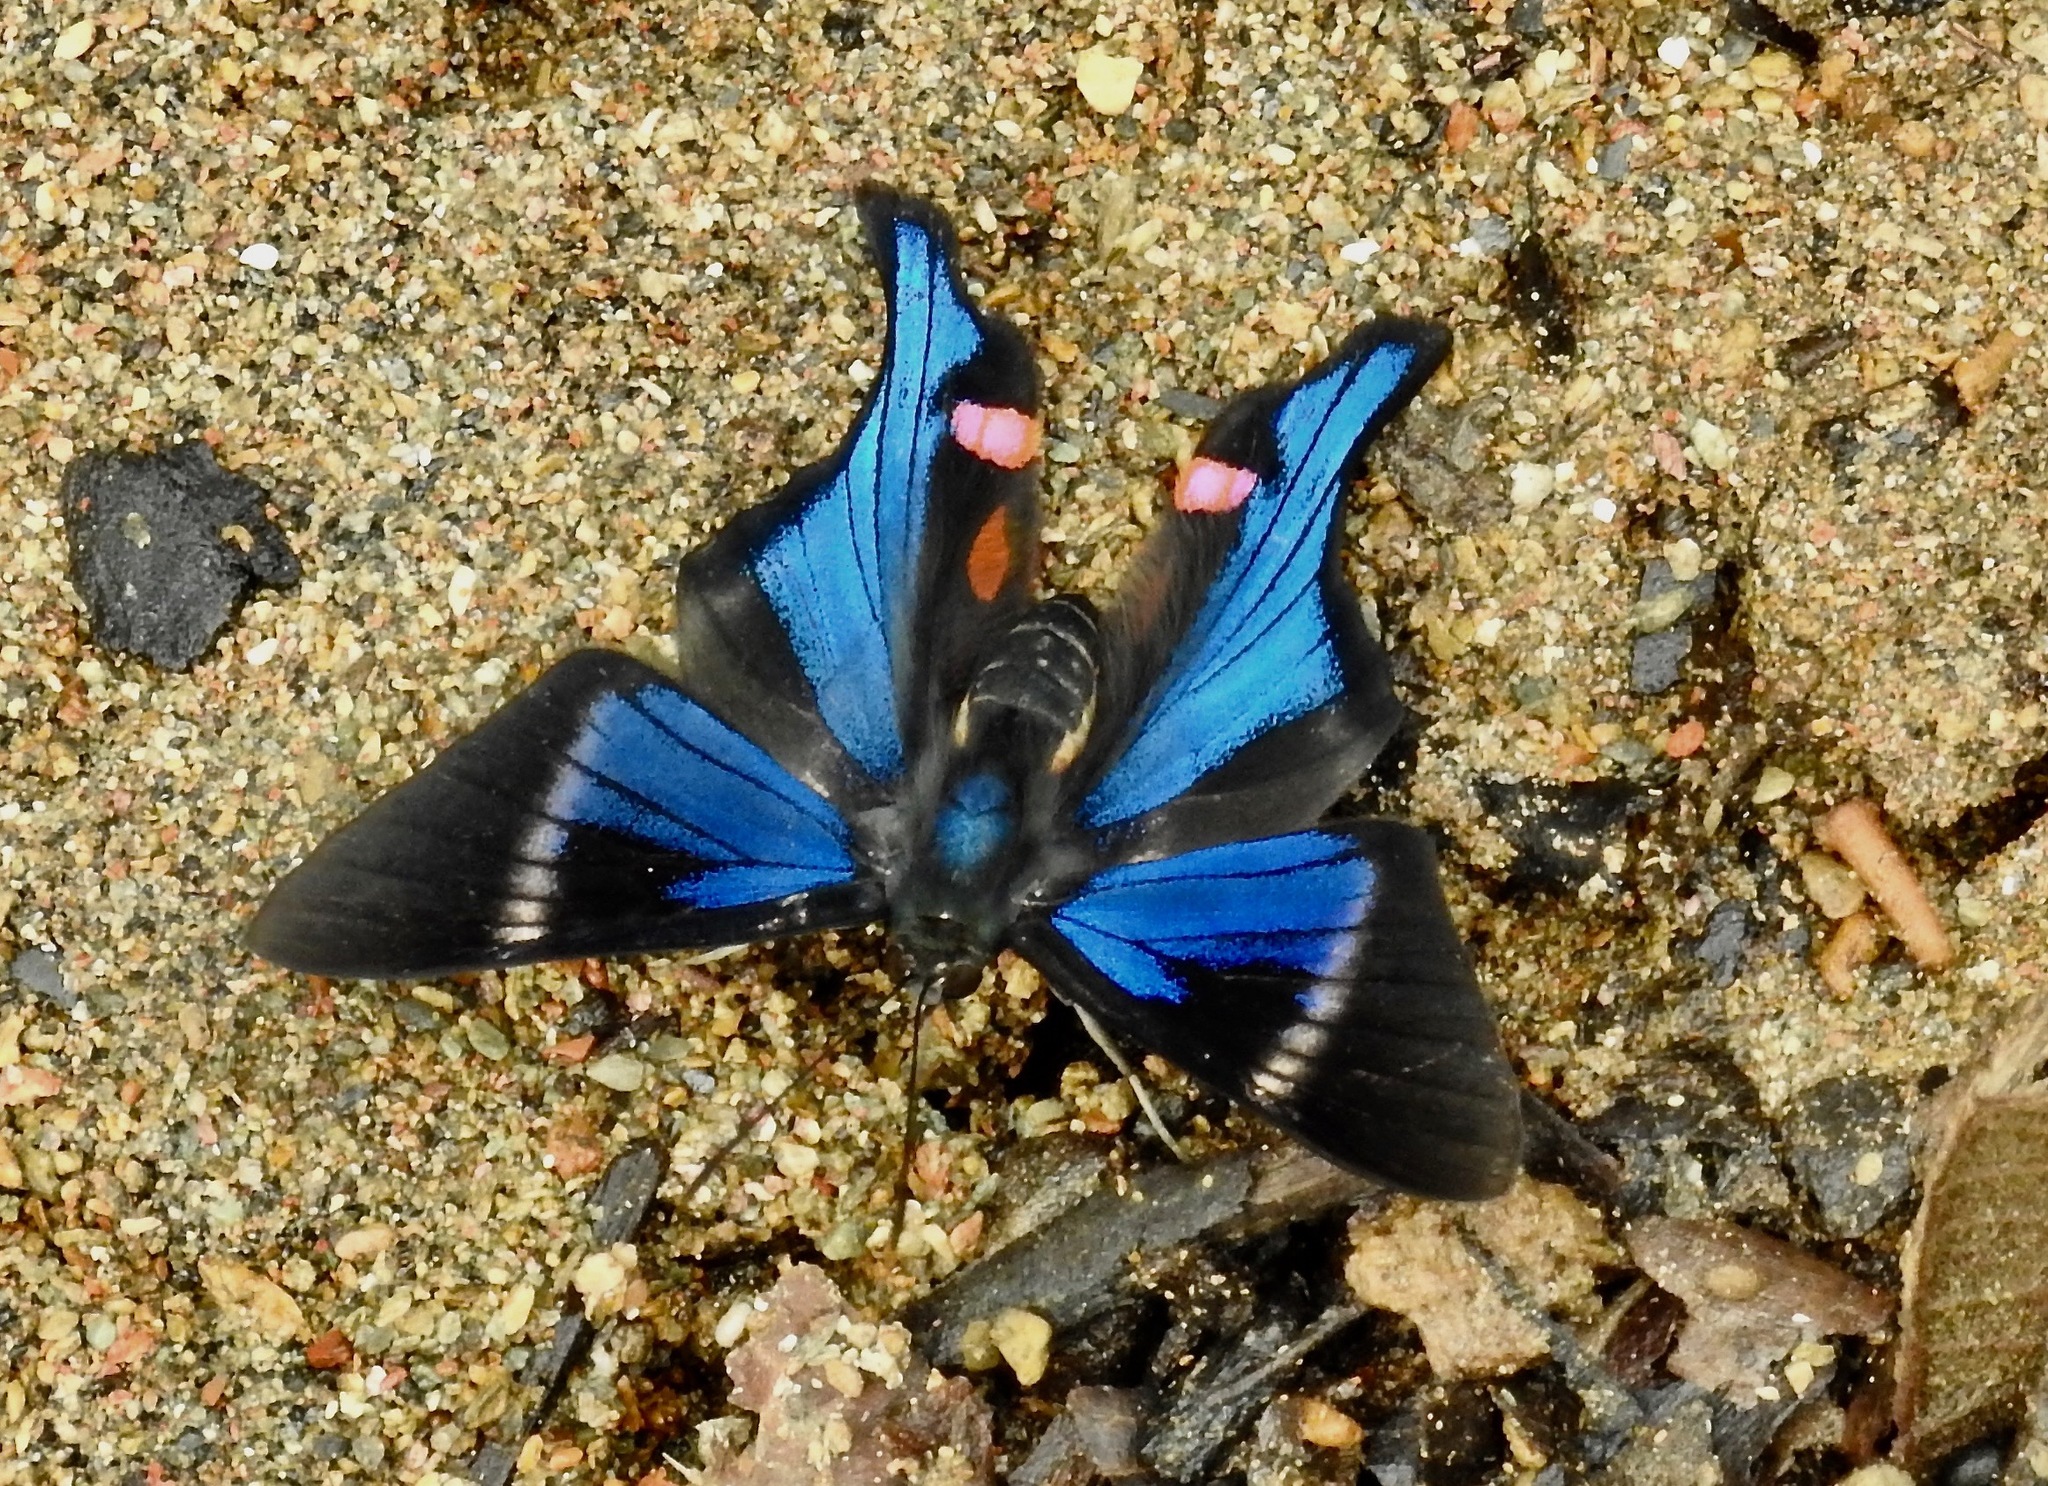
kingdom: Animalia
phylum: Arthropoda
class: Insecta
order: Lepidoptera
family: Riodinidae
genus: Rhetus
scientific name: Rhetus periander
